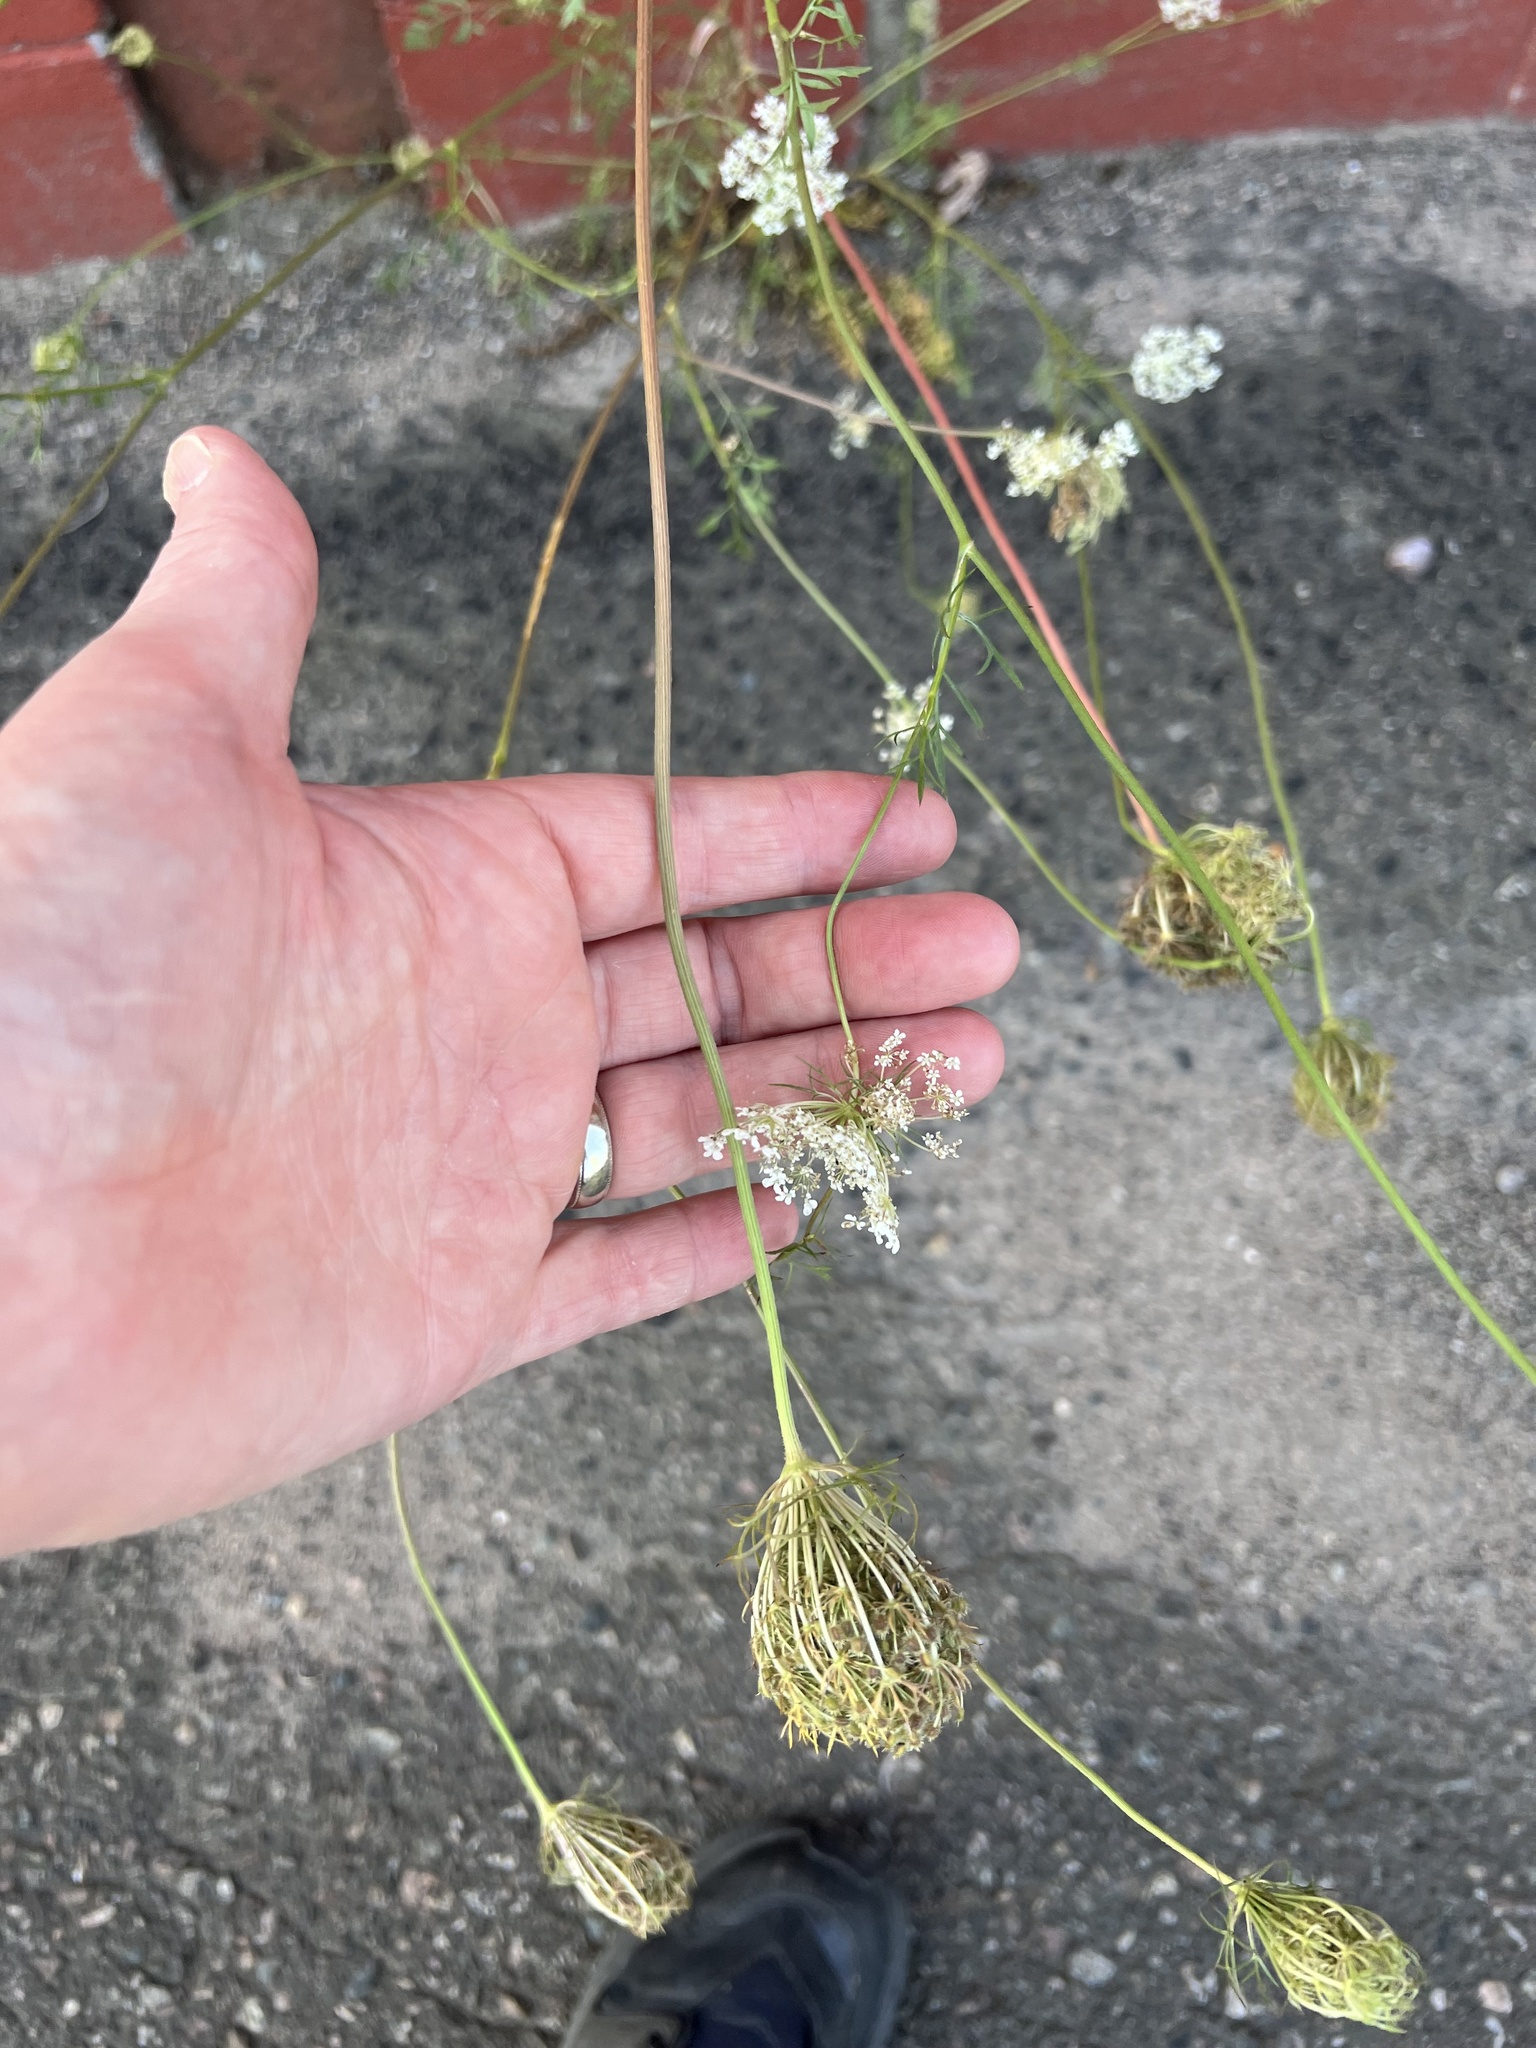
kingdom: Plantae
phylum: Tracheophyta
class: Magnoliopsida
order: Apiales
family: Apiaceae
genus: Daucus
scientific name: Daucus carota
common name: Wild carrot
